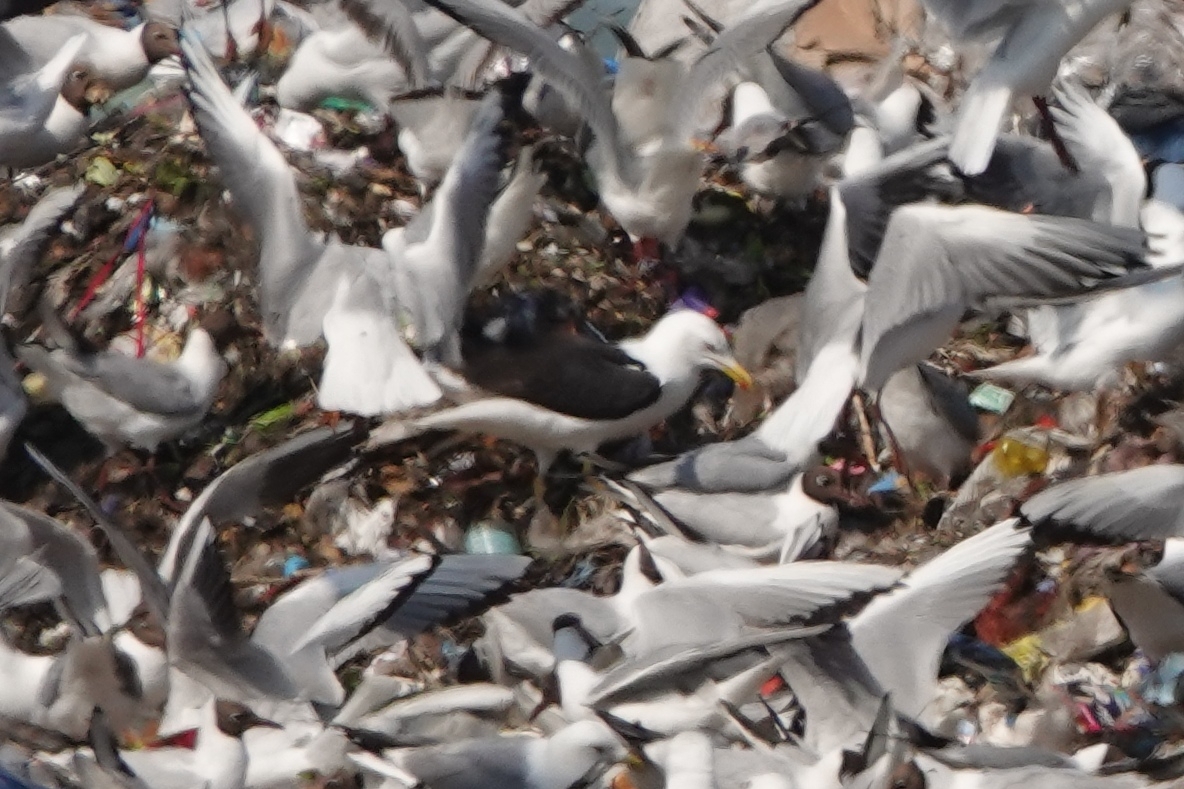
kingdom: Animalia
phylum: Chordata
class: Aves
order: Charadriiformes
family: Laridae
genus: Larus
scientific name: Larus fuscus
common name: Lesser black-backed gull
